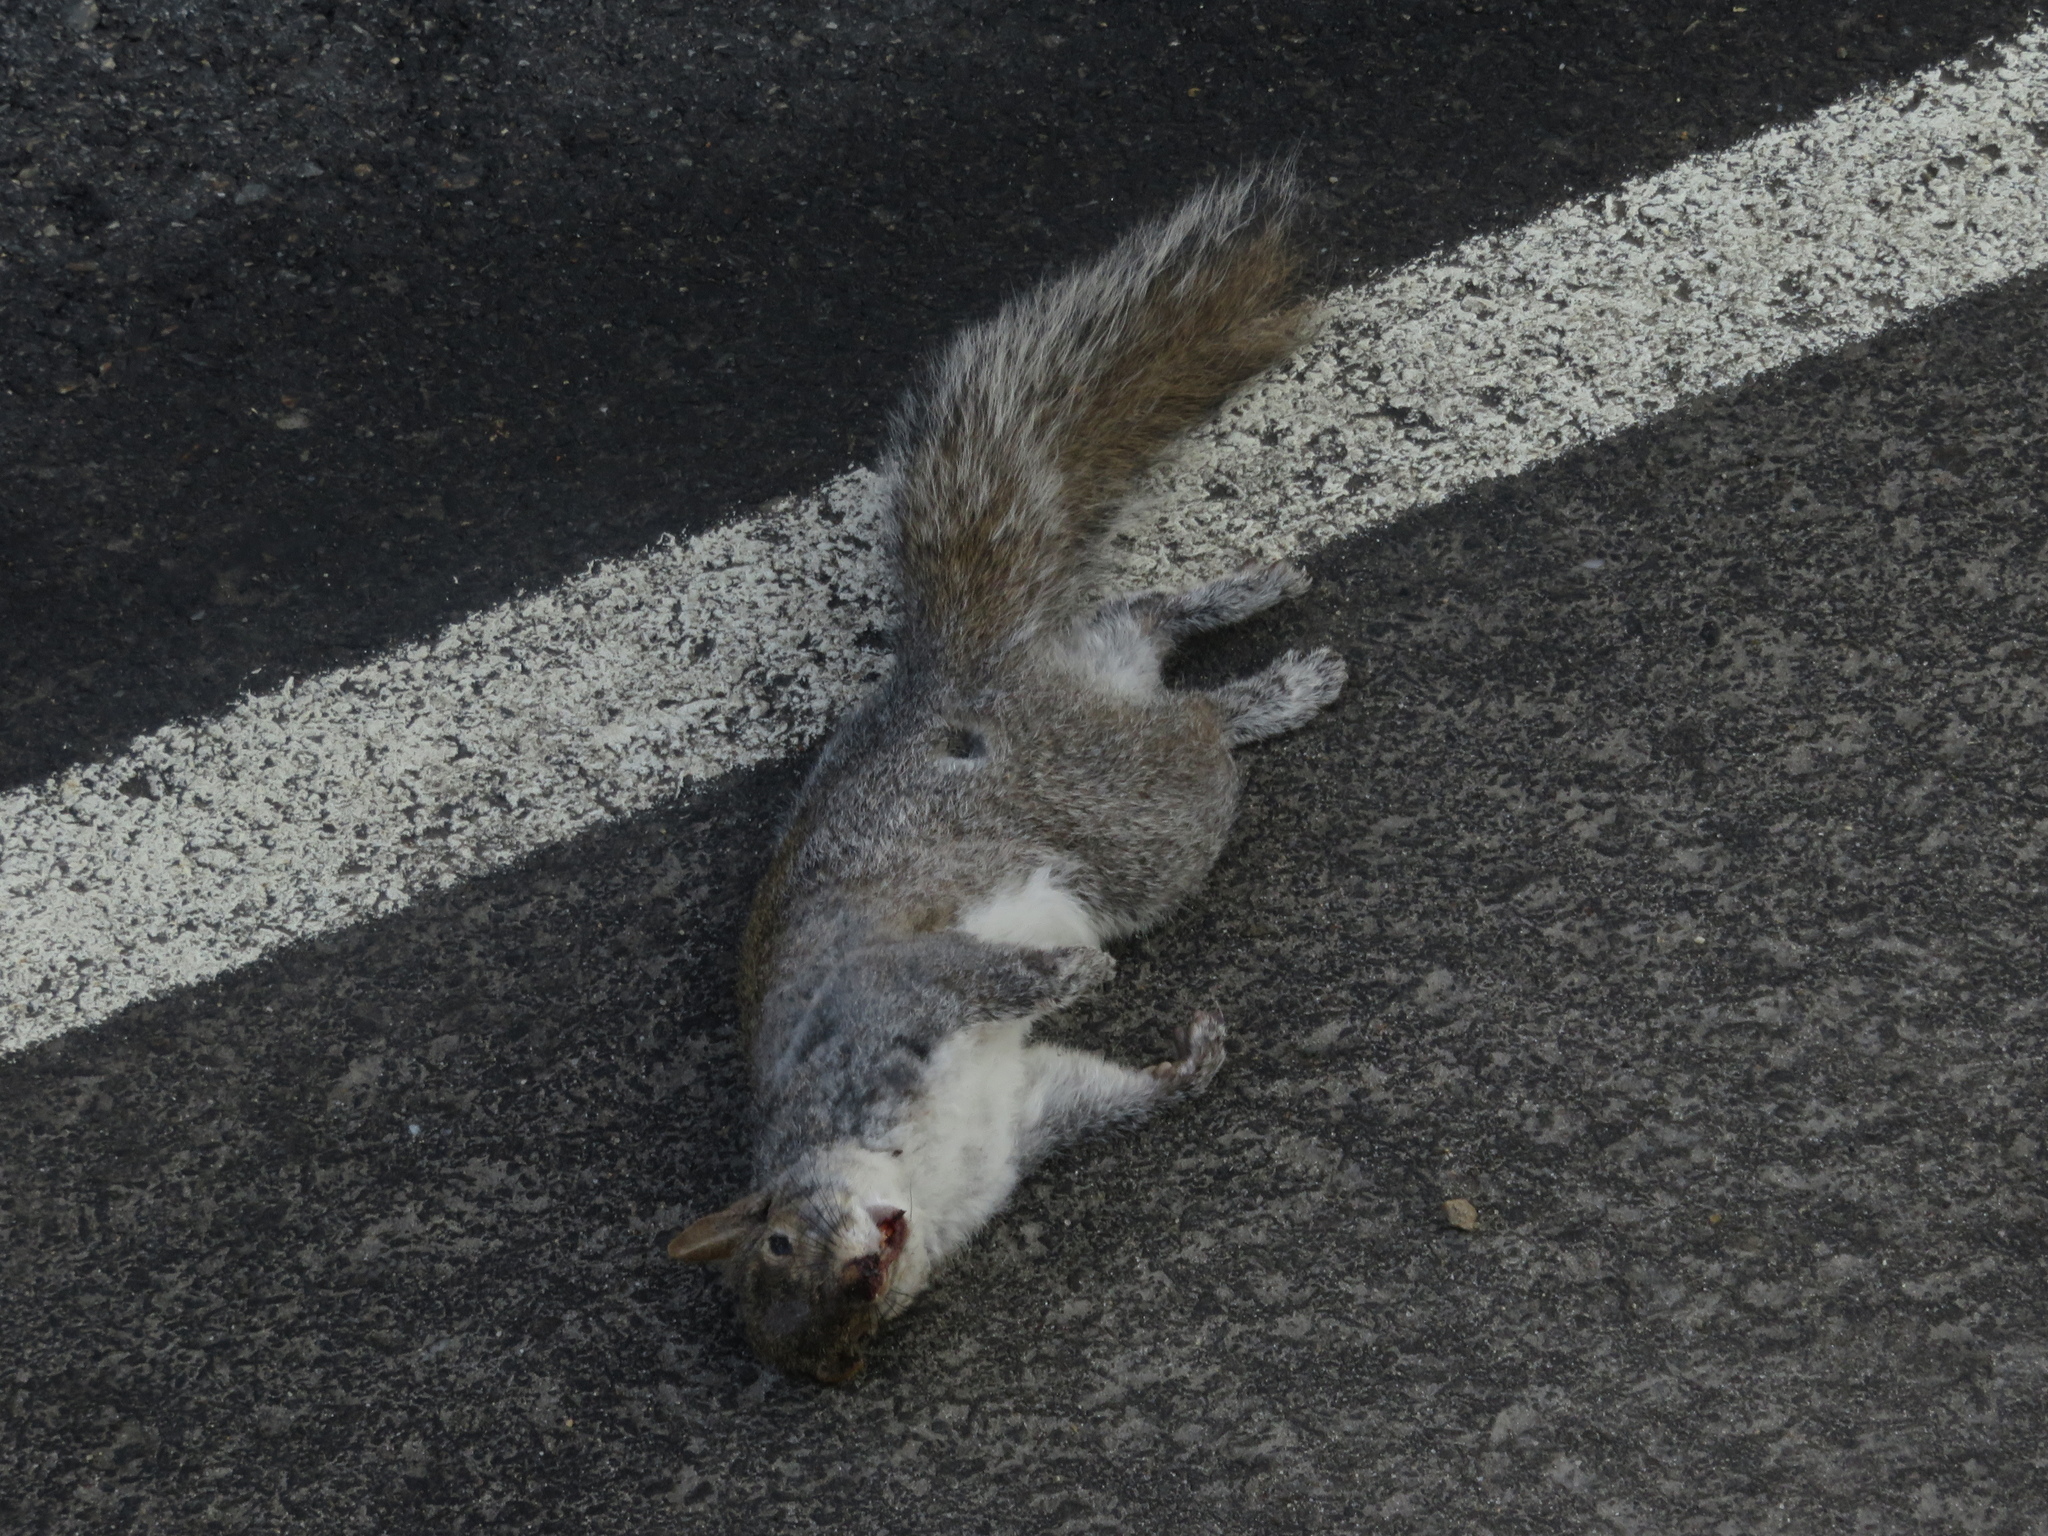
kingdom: Animalia
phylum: Chordata
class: Mammalia
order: Rodentia
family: Sciuridae
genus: Sciurus
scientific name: Sciurus carolinensis
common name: Eastern gray squirrel
